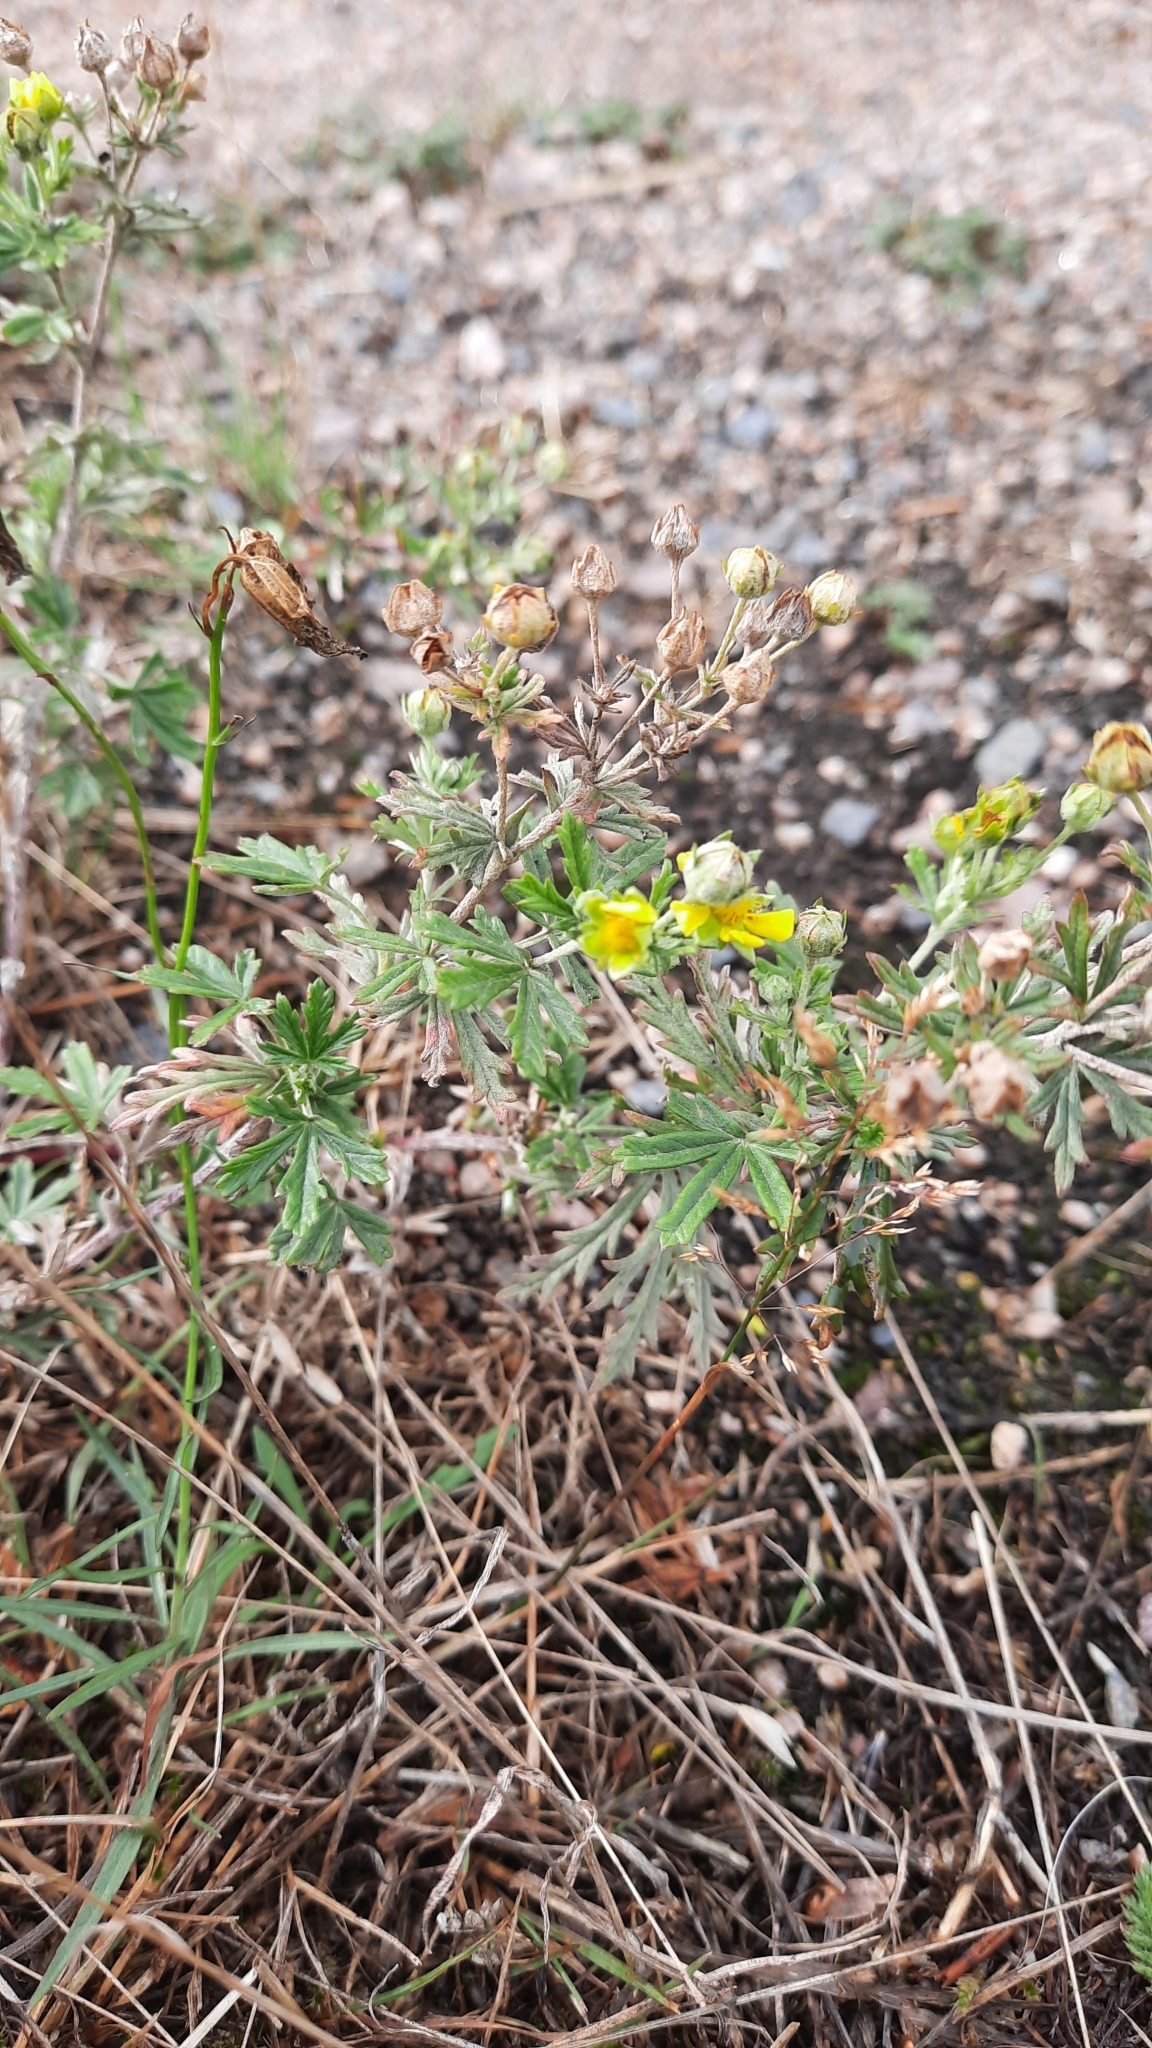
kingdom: Plantae
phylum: Tracheophyta
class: Magnoliopsida
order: Rosales
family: Rosaceae
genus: Potentilla
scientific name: Potentilla argentea
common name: Hoary cinquefoil
